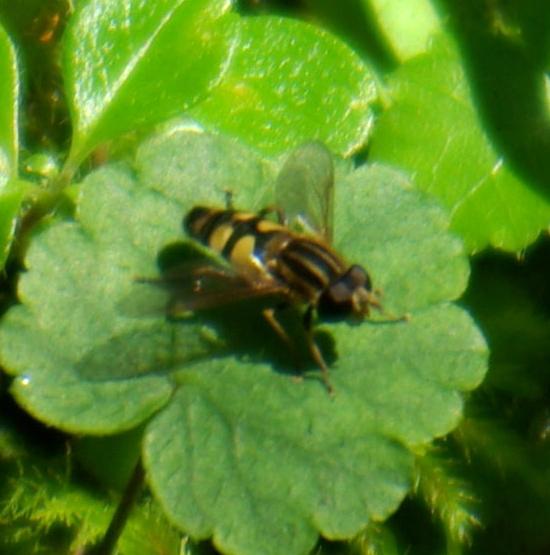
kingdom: Animalia
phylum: Arthropoda
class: Insecta
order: Diptera
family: Syrphidae
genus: Helophilus
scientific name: Helophilus fasciatus
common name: Narrow-headed marsh fly
